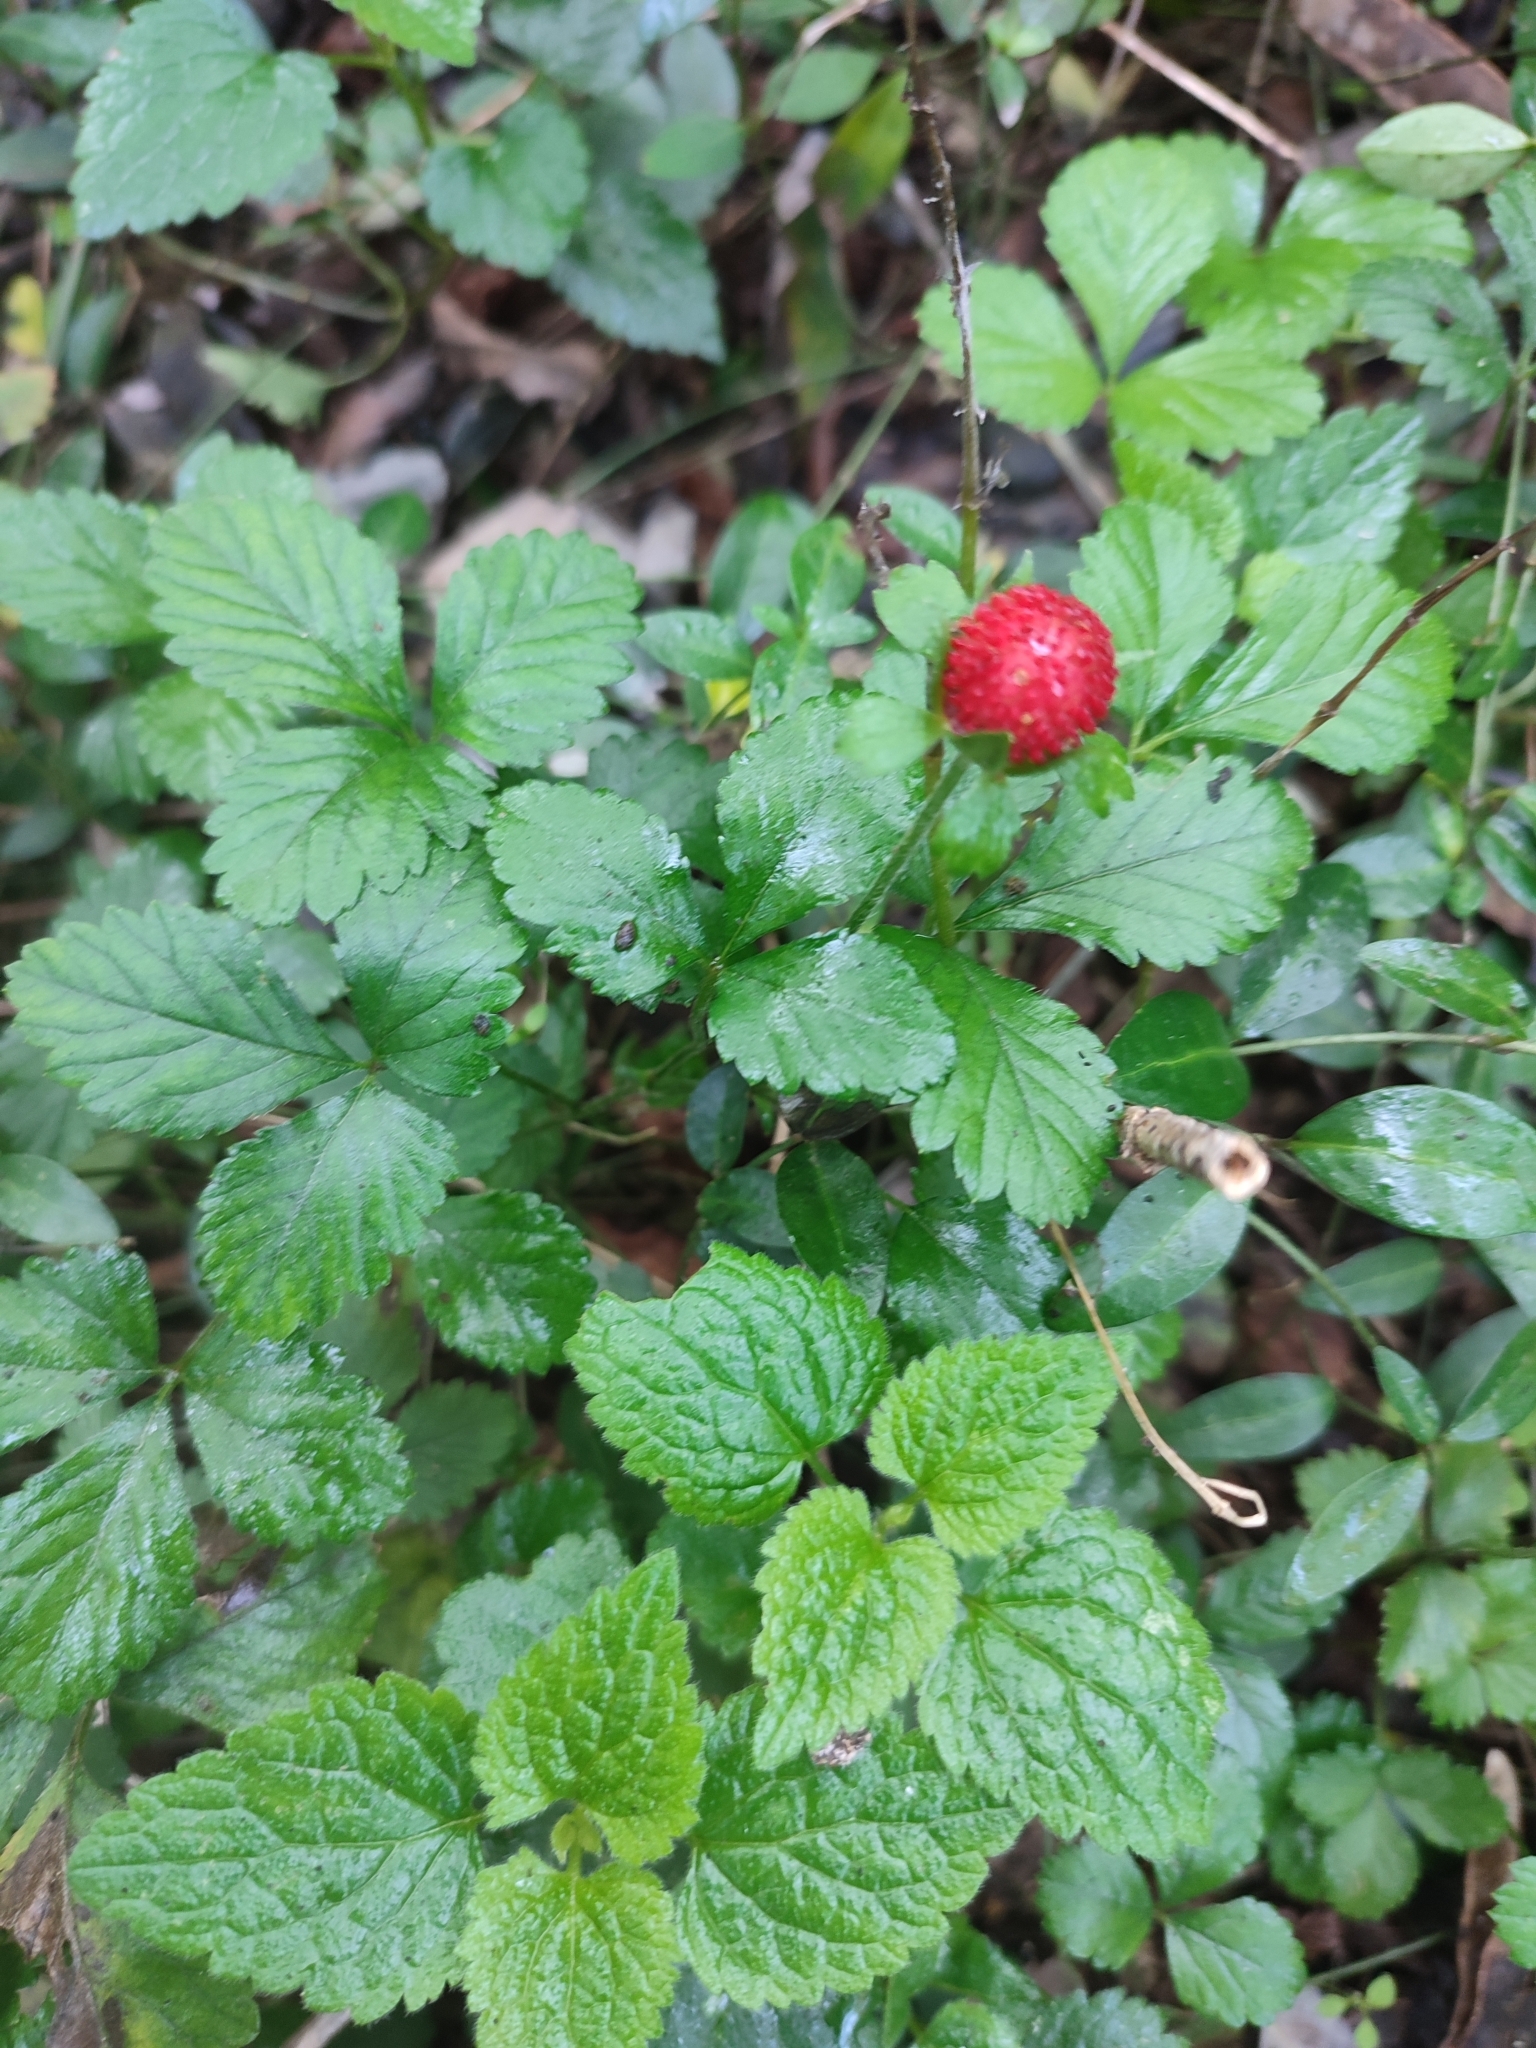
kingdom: Plantae
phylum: Tracheophyta
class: Magnoliopsida
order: Rosales
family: Rosaceae
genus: Potentilla
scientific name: Potentilla indica
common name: Yellow-flowered strawberry
